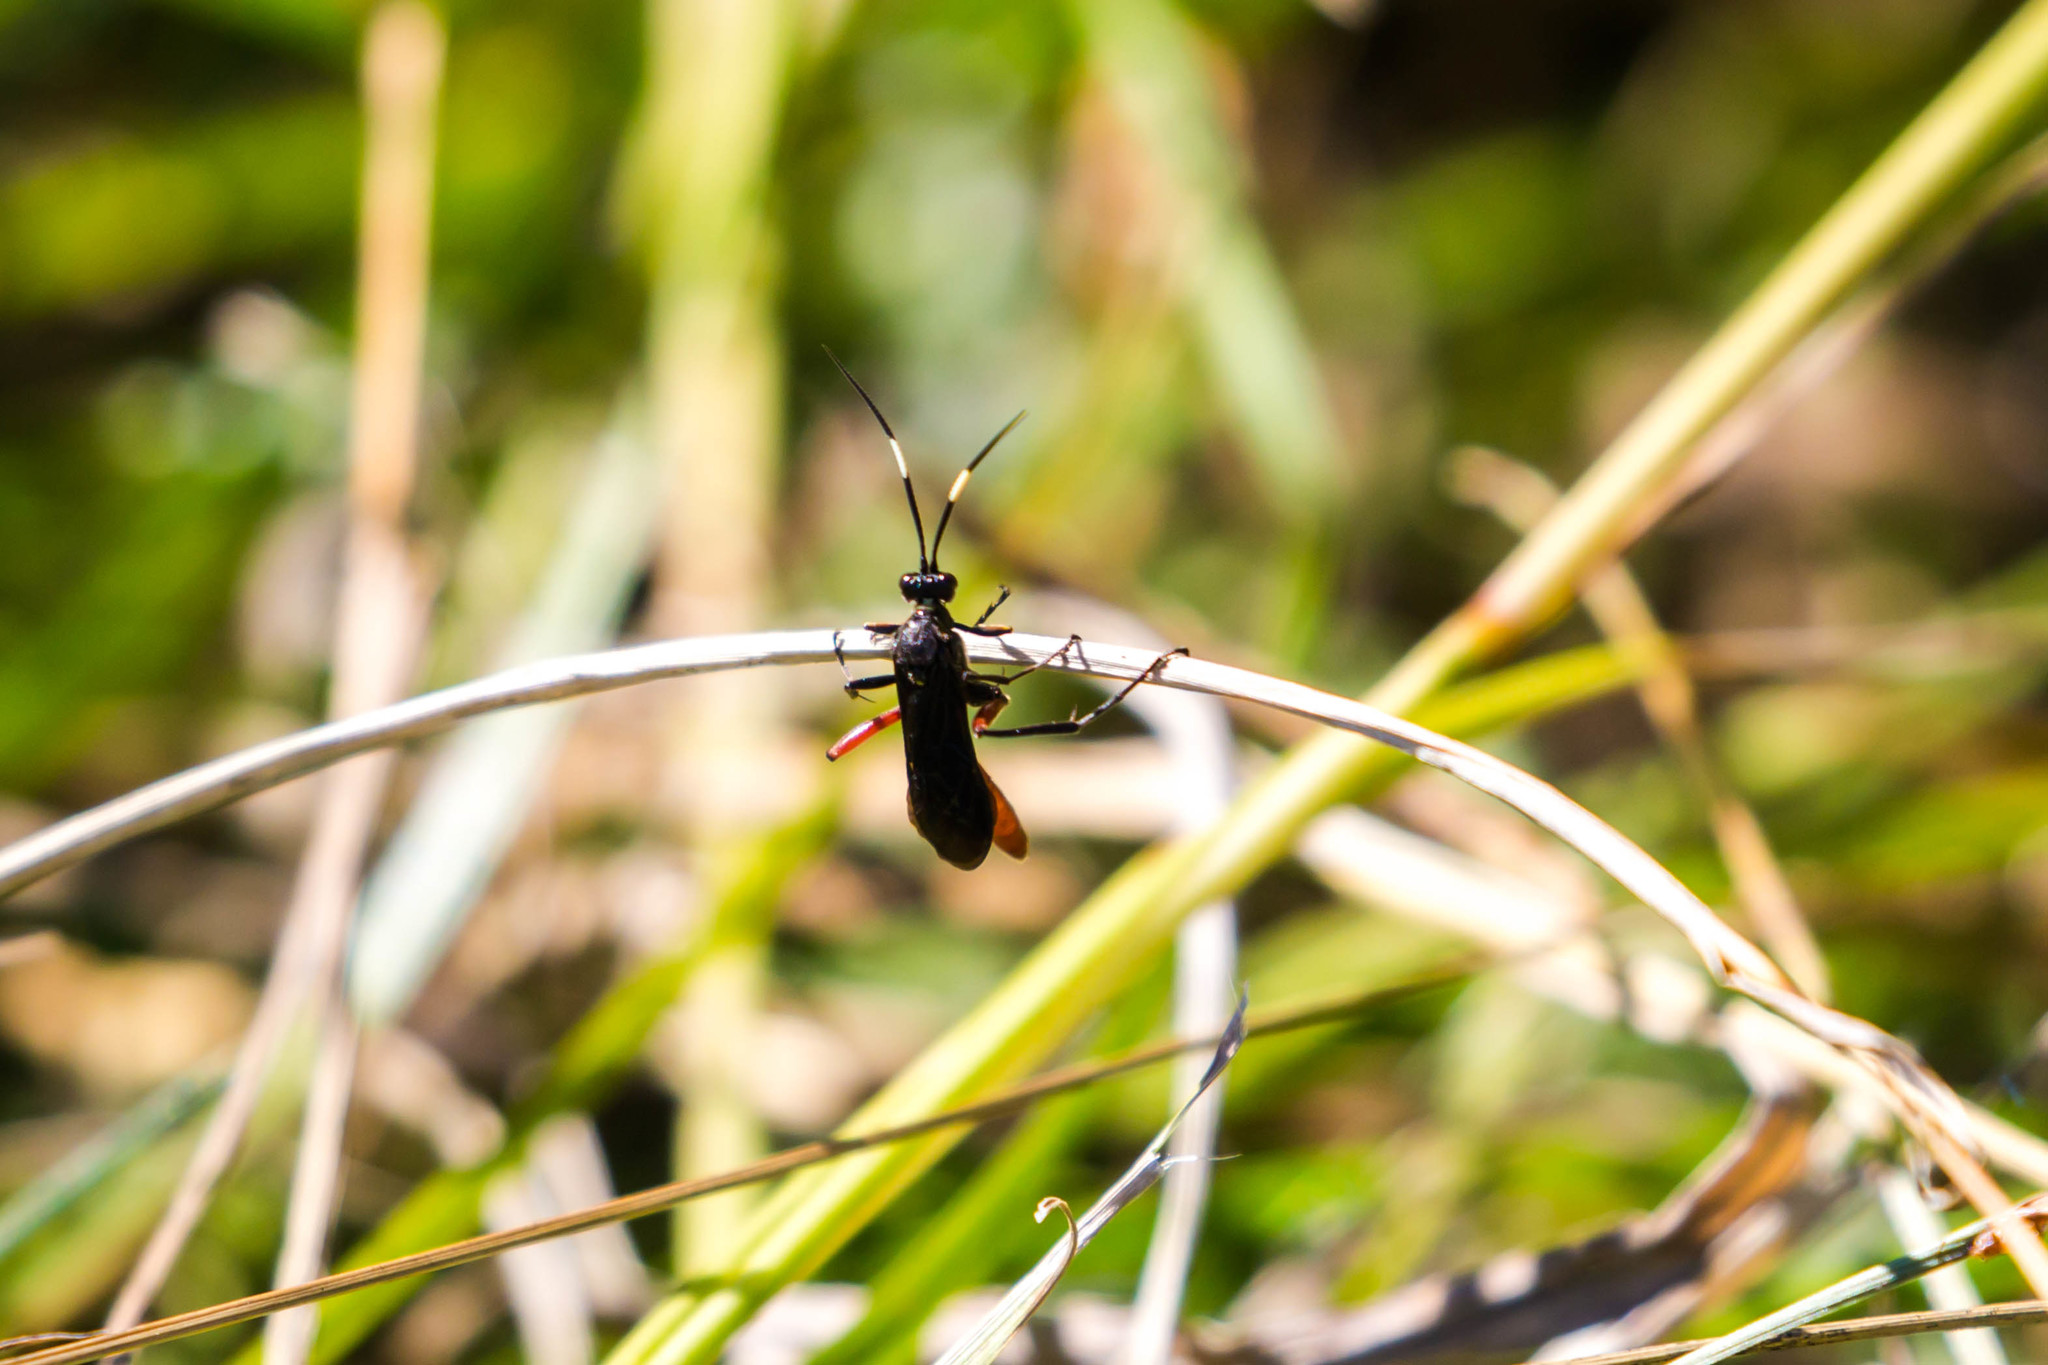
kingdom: Animalia
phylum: Arthropoda
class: Insecta
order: Hymenoptera
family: Ichneumonidae
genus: Limonethe
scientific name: Limonethe maurator
